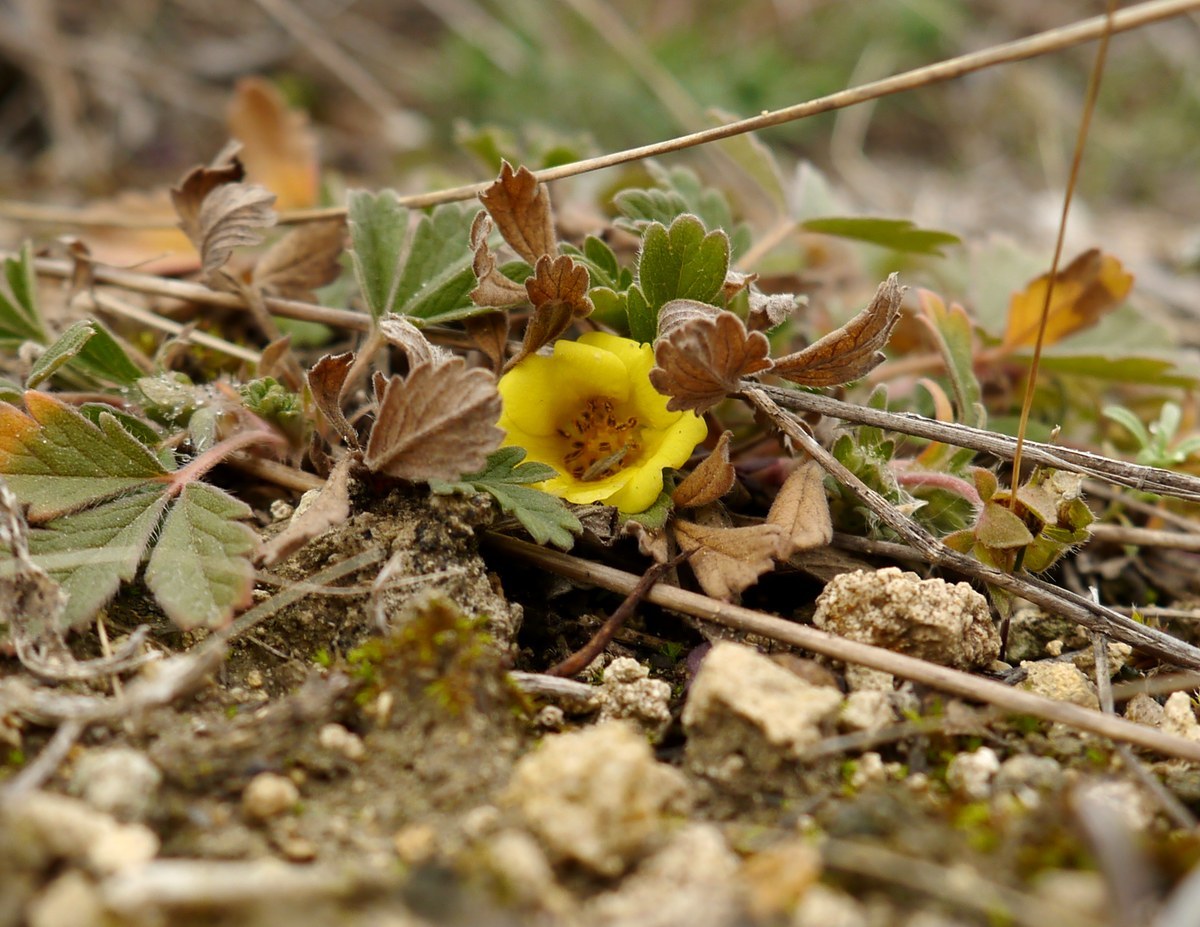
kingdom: Plantae
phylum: Tracheophyta
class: Magnoliopsida
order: Rosales
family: Rosaceae
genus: Potentilla
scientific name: Potentilla incana
